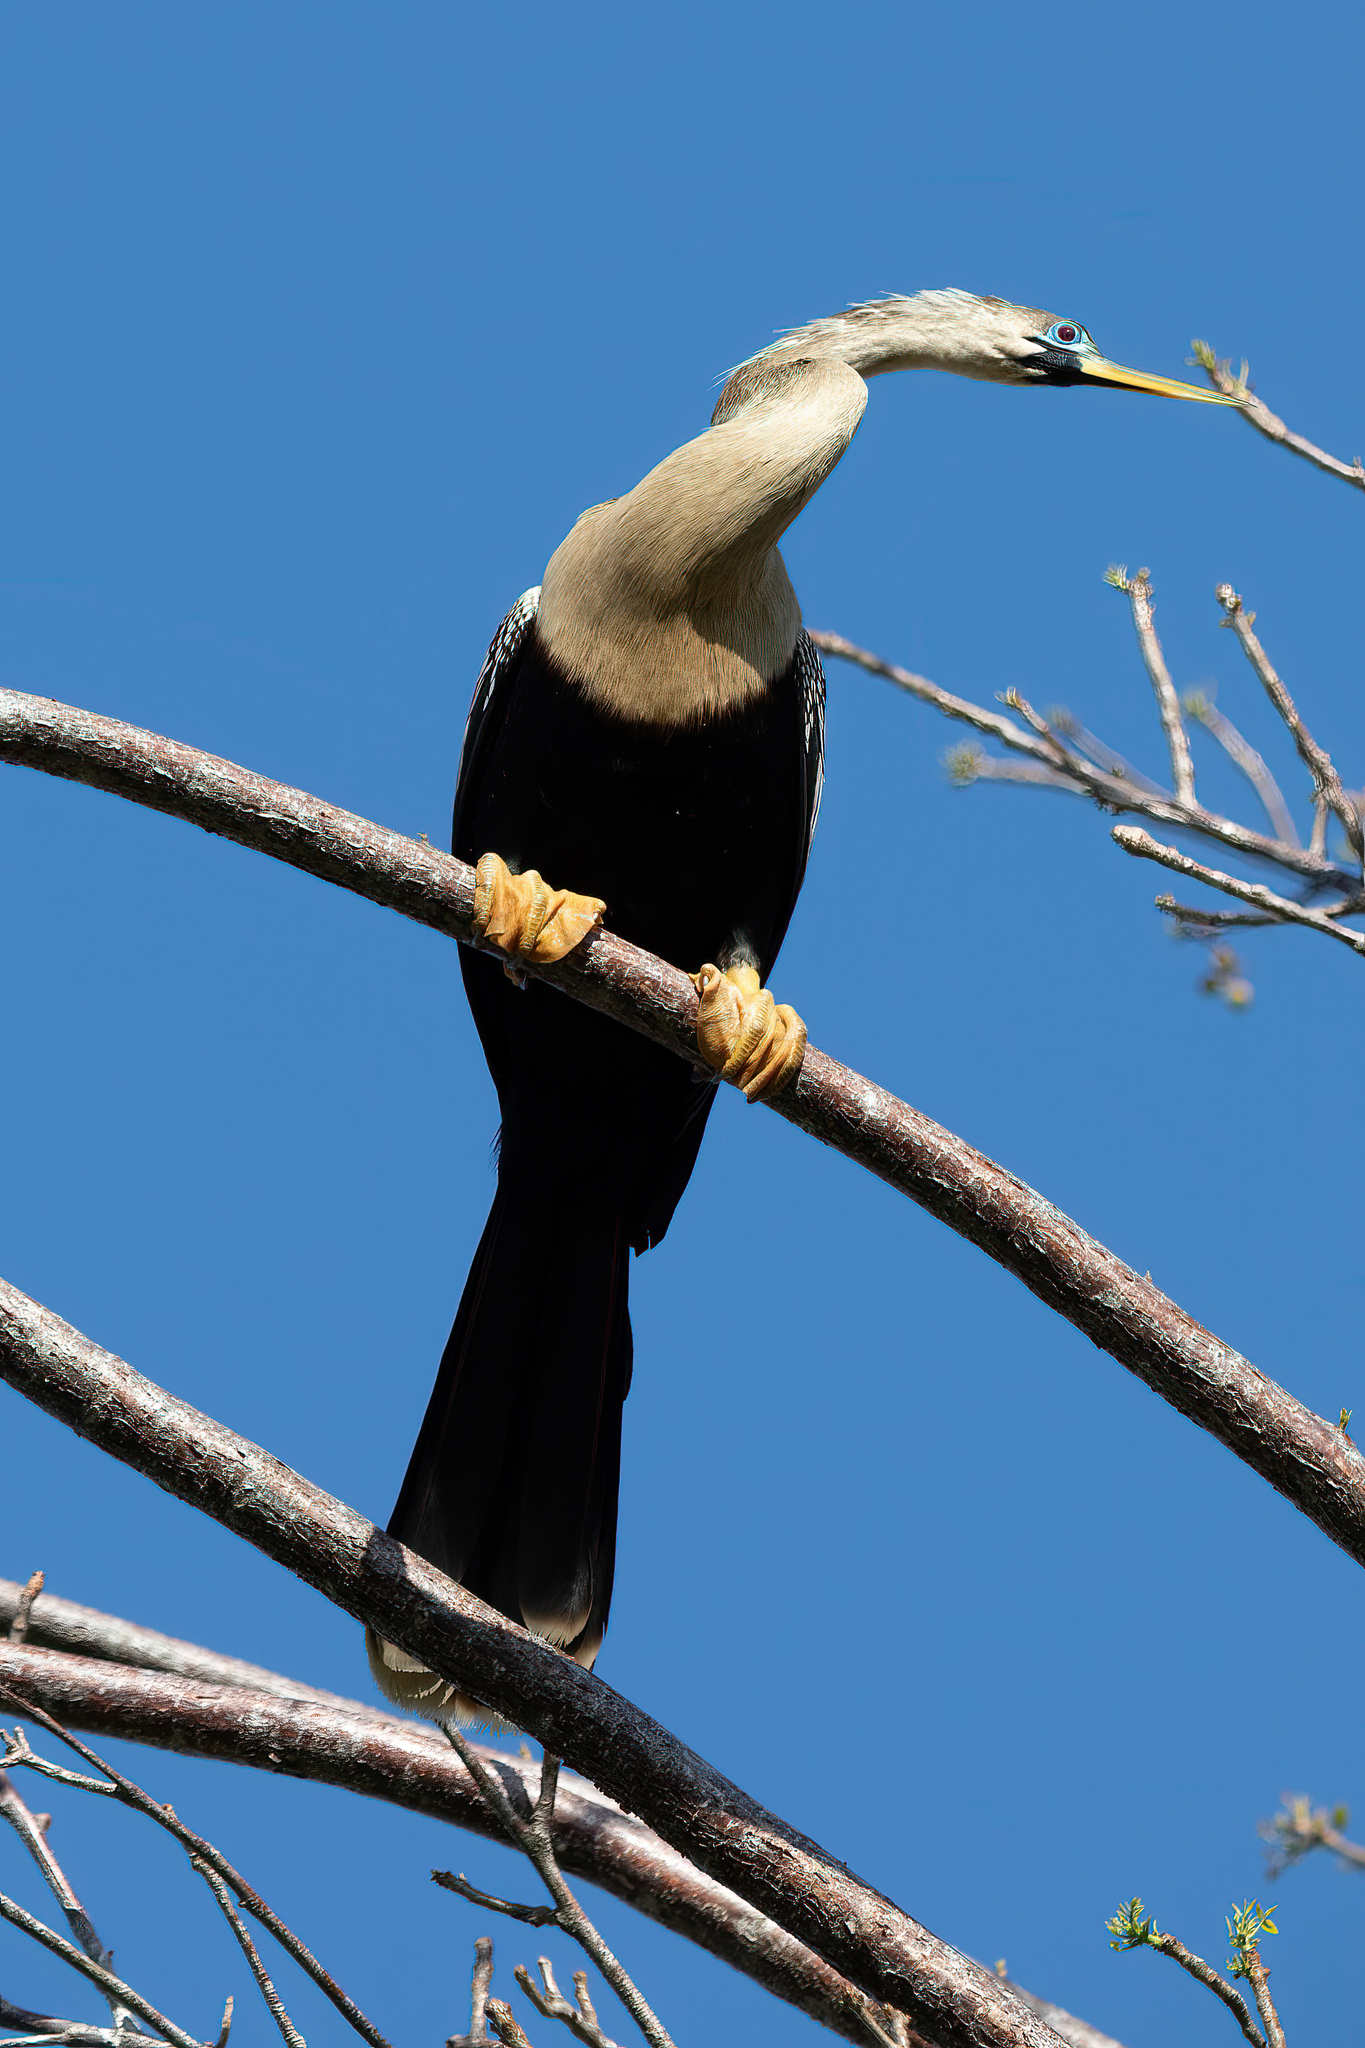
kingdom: Animalia
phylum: Chordata
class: Aves
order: Suliformes
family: Anhingidae
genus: Anhinga
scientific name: Anhinga anhinga
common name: Anhinga
